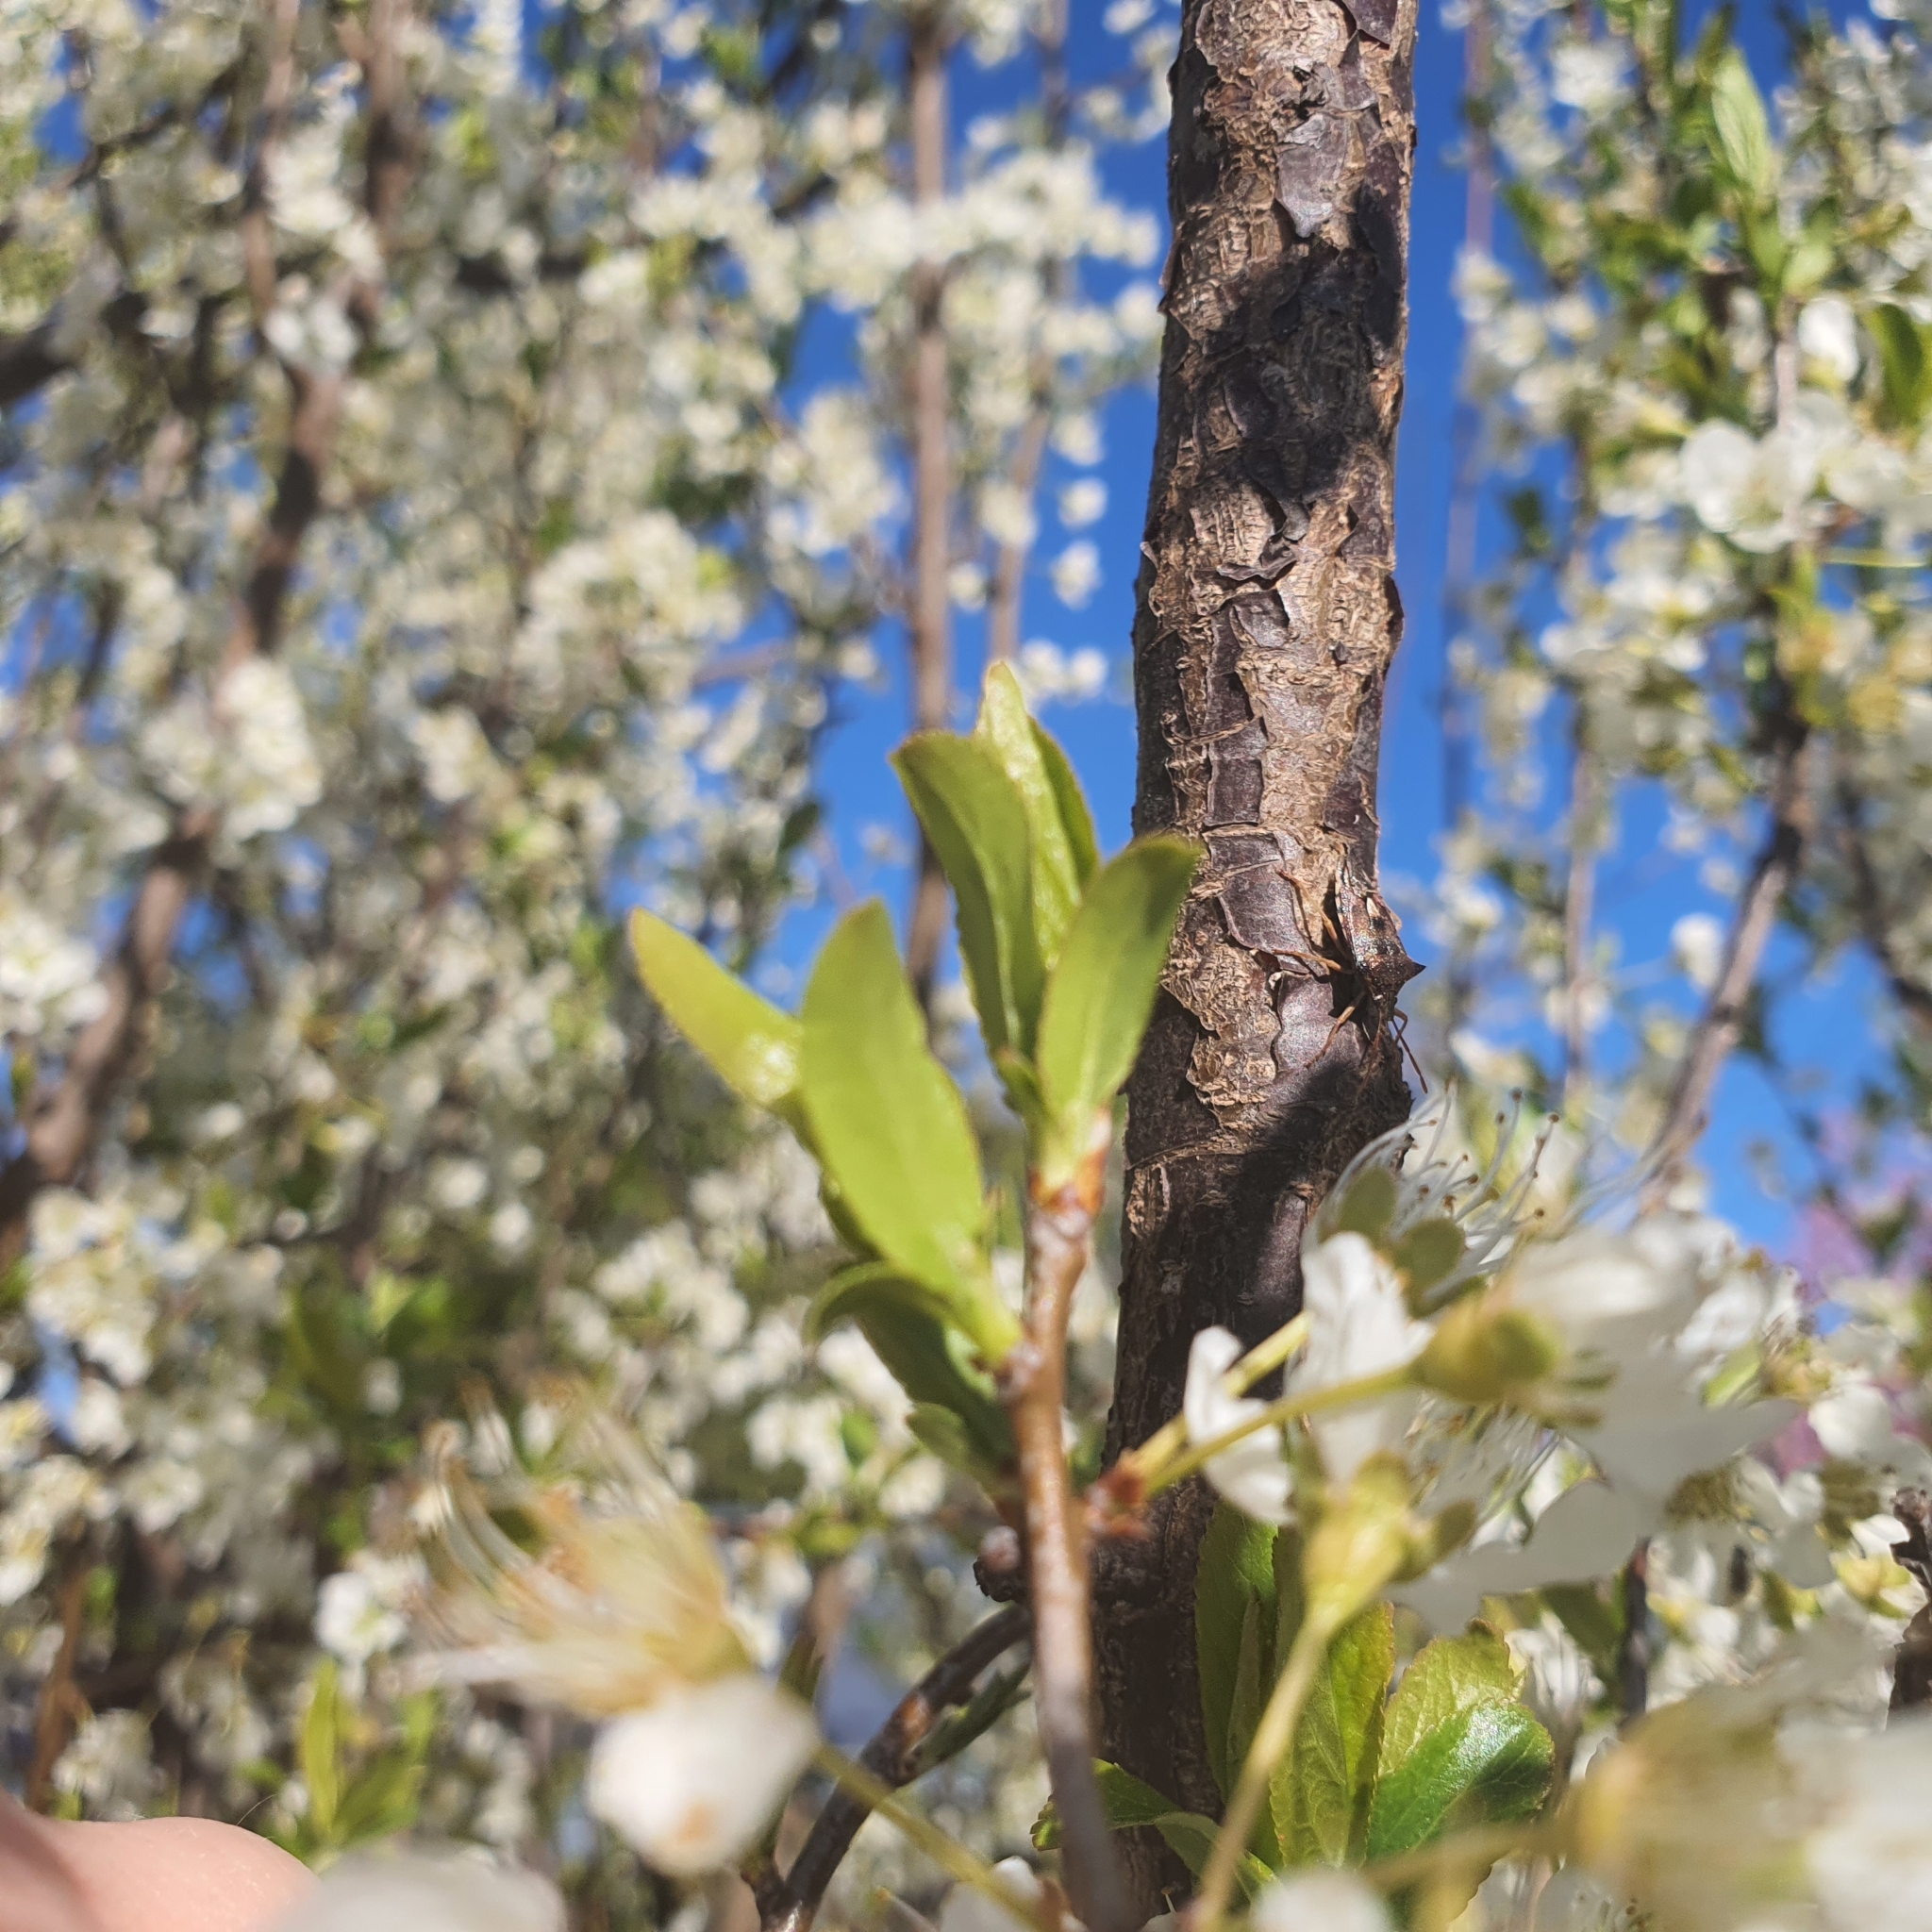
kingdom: Animalia
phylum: Arthropoda
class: Insecta
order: Hemiptera
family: Pentatomidae
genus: Oechalia
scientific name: Oechalia schellenbergii
